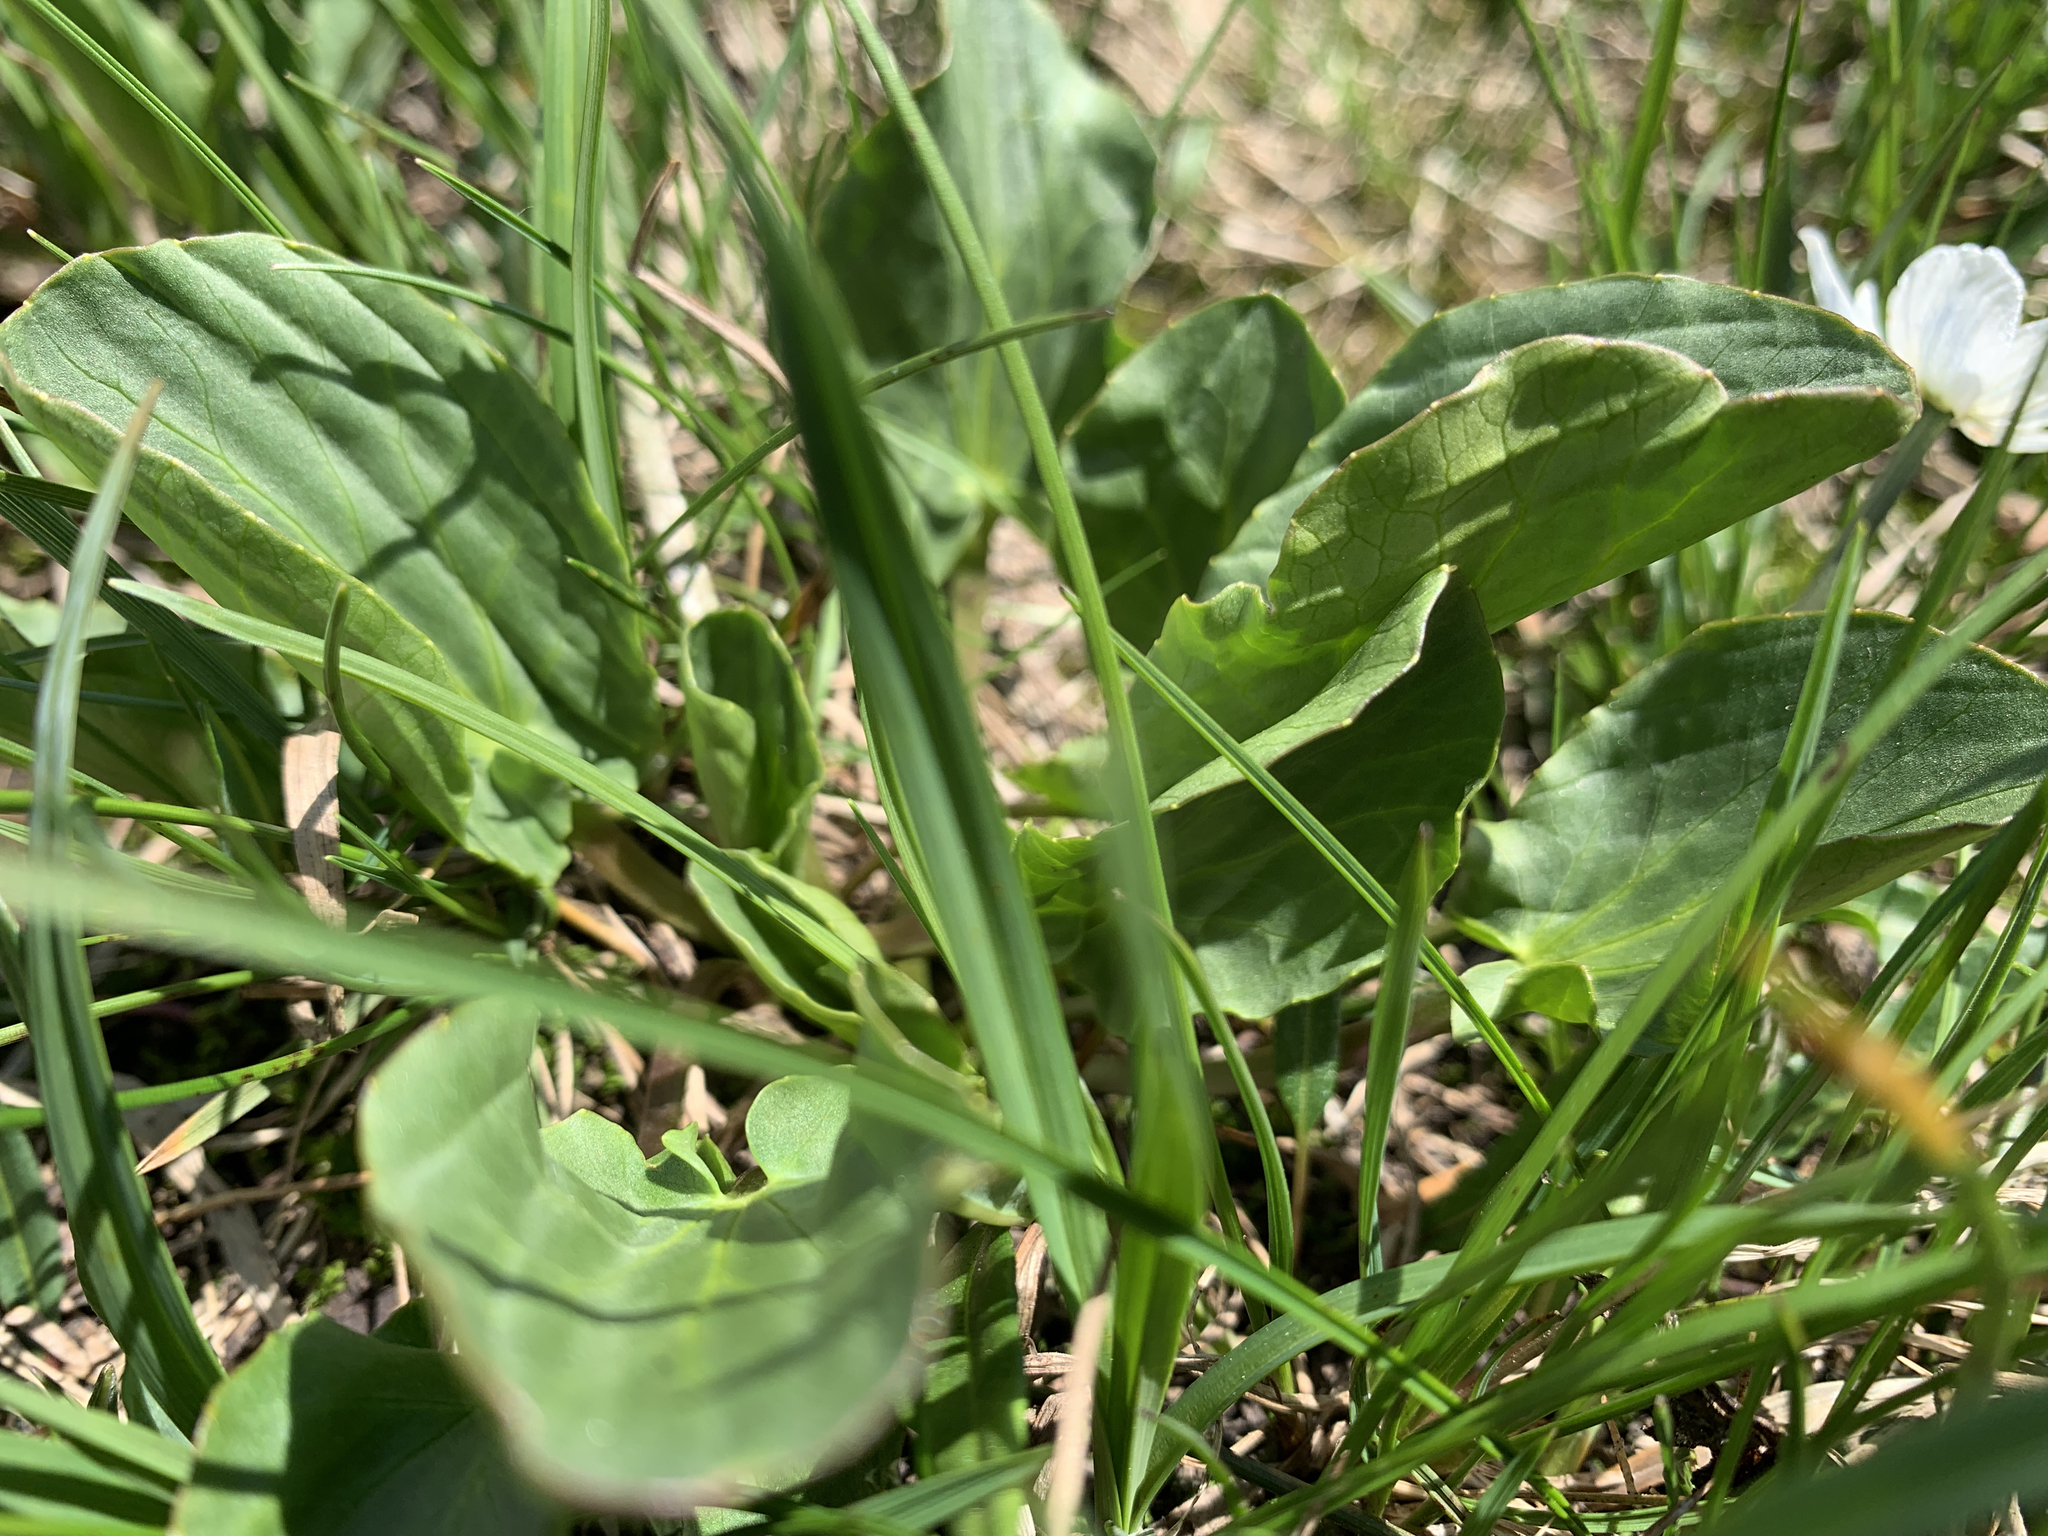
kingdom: Plantae
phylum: Tracheophyta
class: Magnoliopsida
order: Ranunculales
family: Ranunculaceae
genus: Caltha
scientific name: Caltha leptosepala
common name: Elkslip
